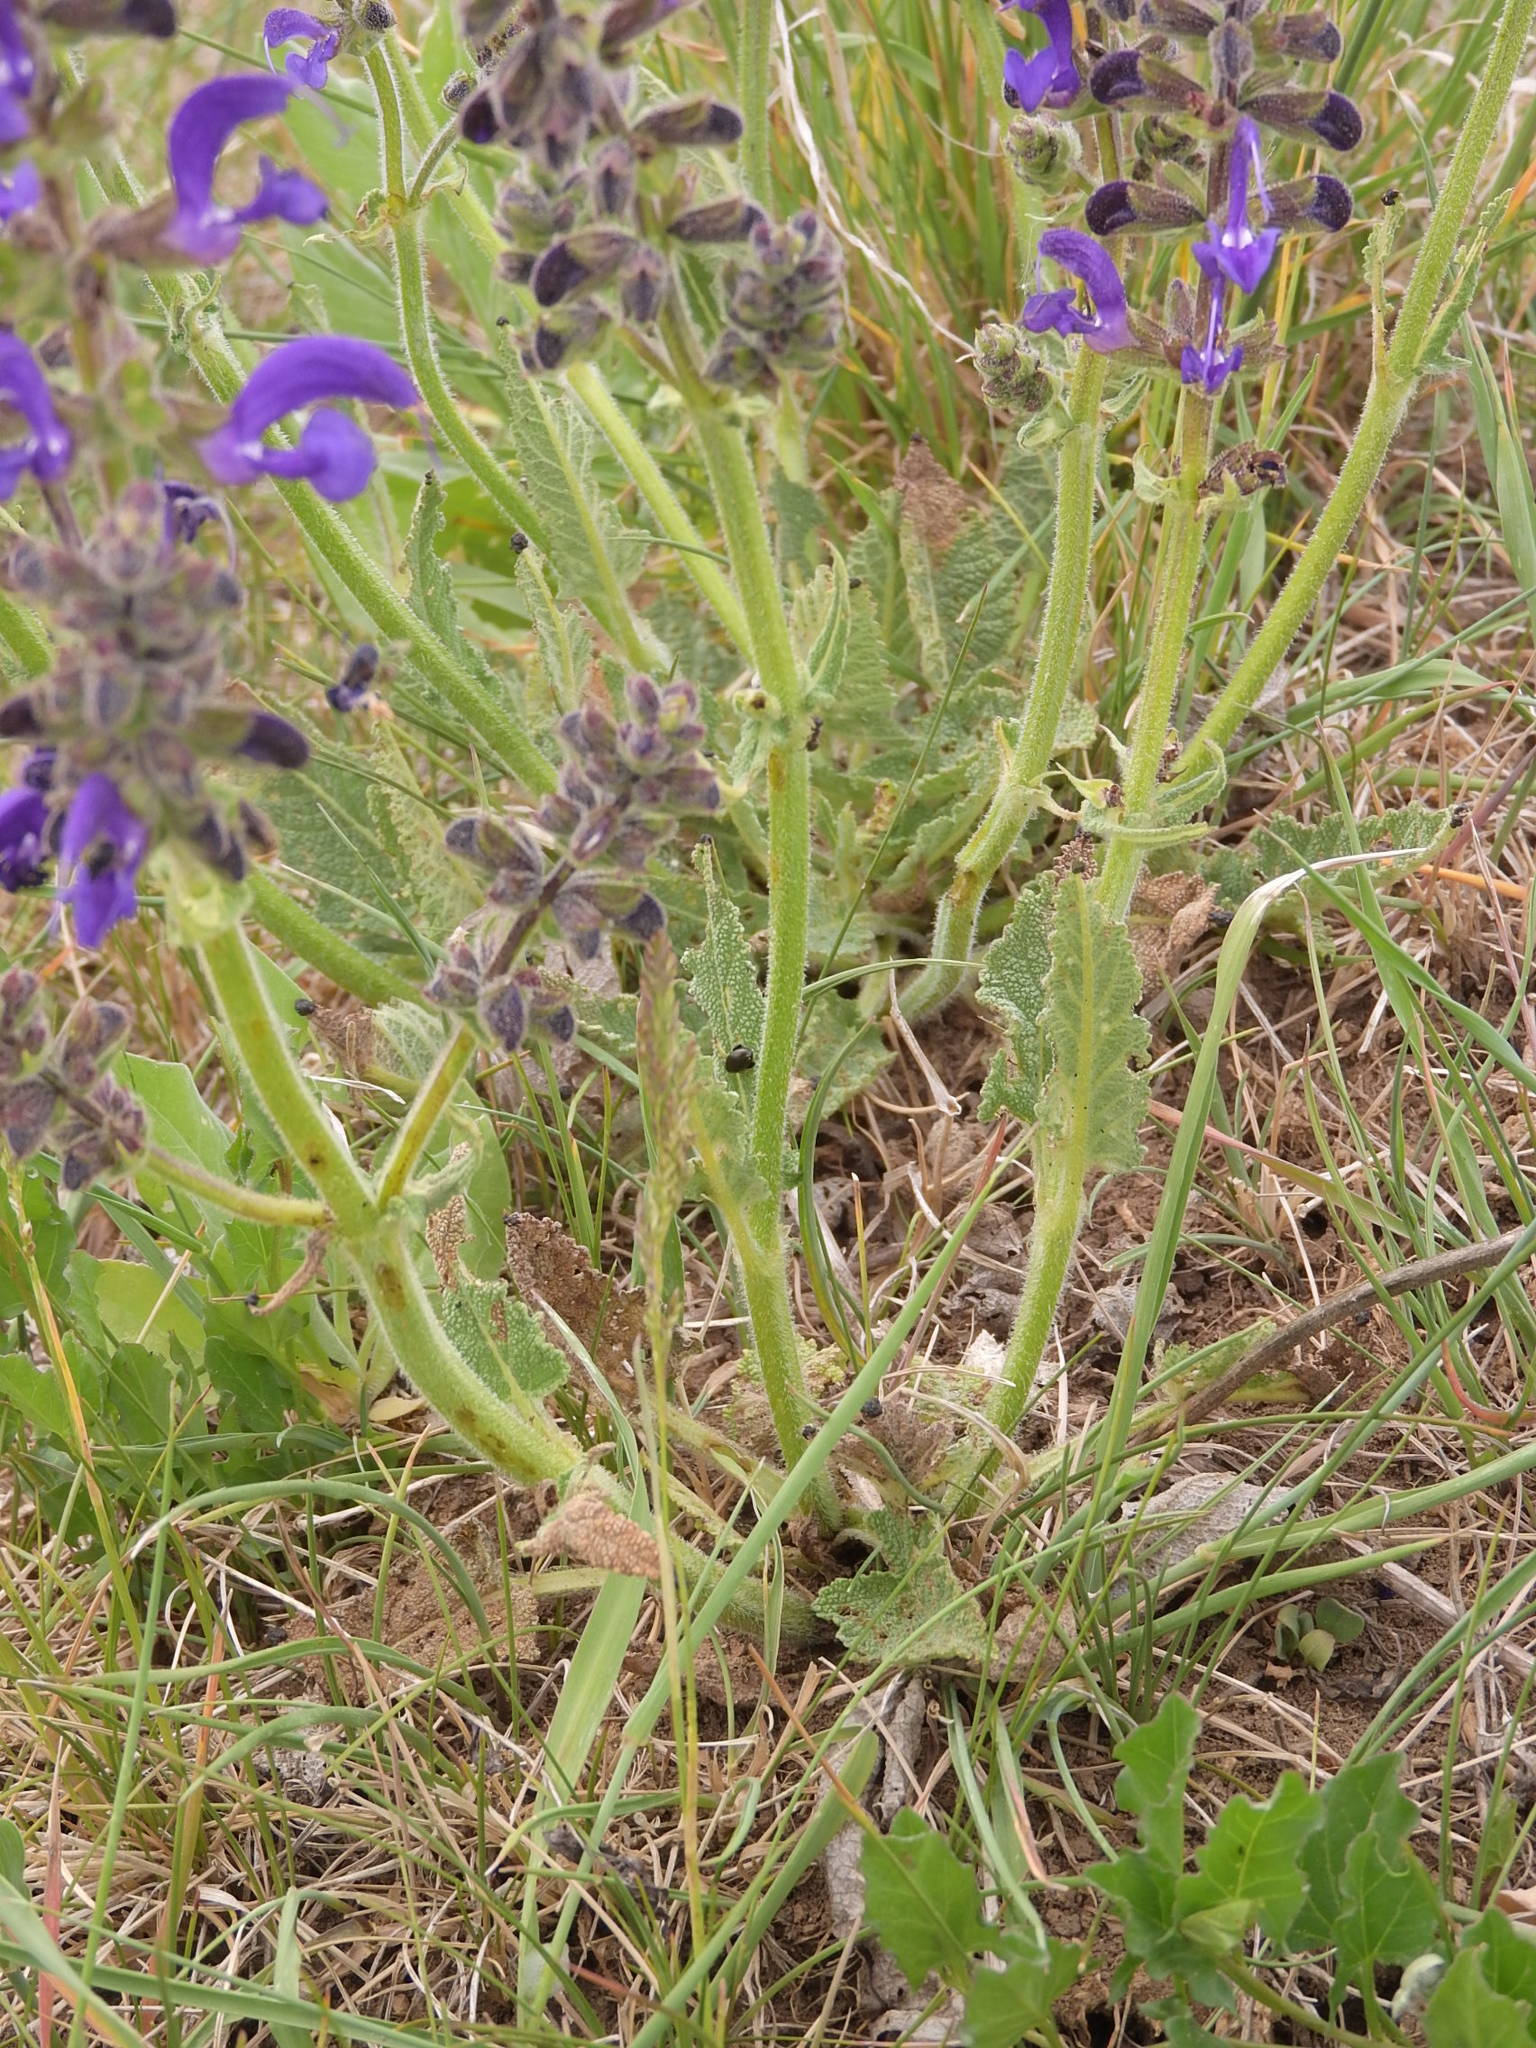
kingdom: Plantae
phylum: Tracheophyta
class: Magnoliopsida
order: Lamiales
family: Lamiaceae
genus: Salvia
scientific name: Salvia pratensis
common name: Meadow sage
